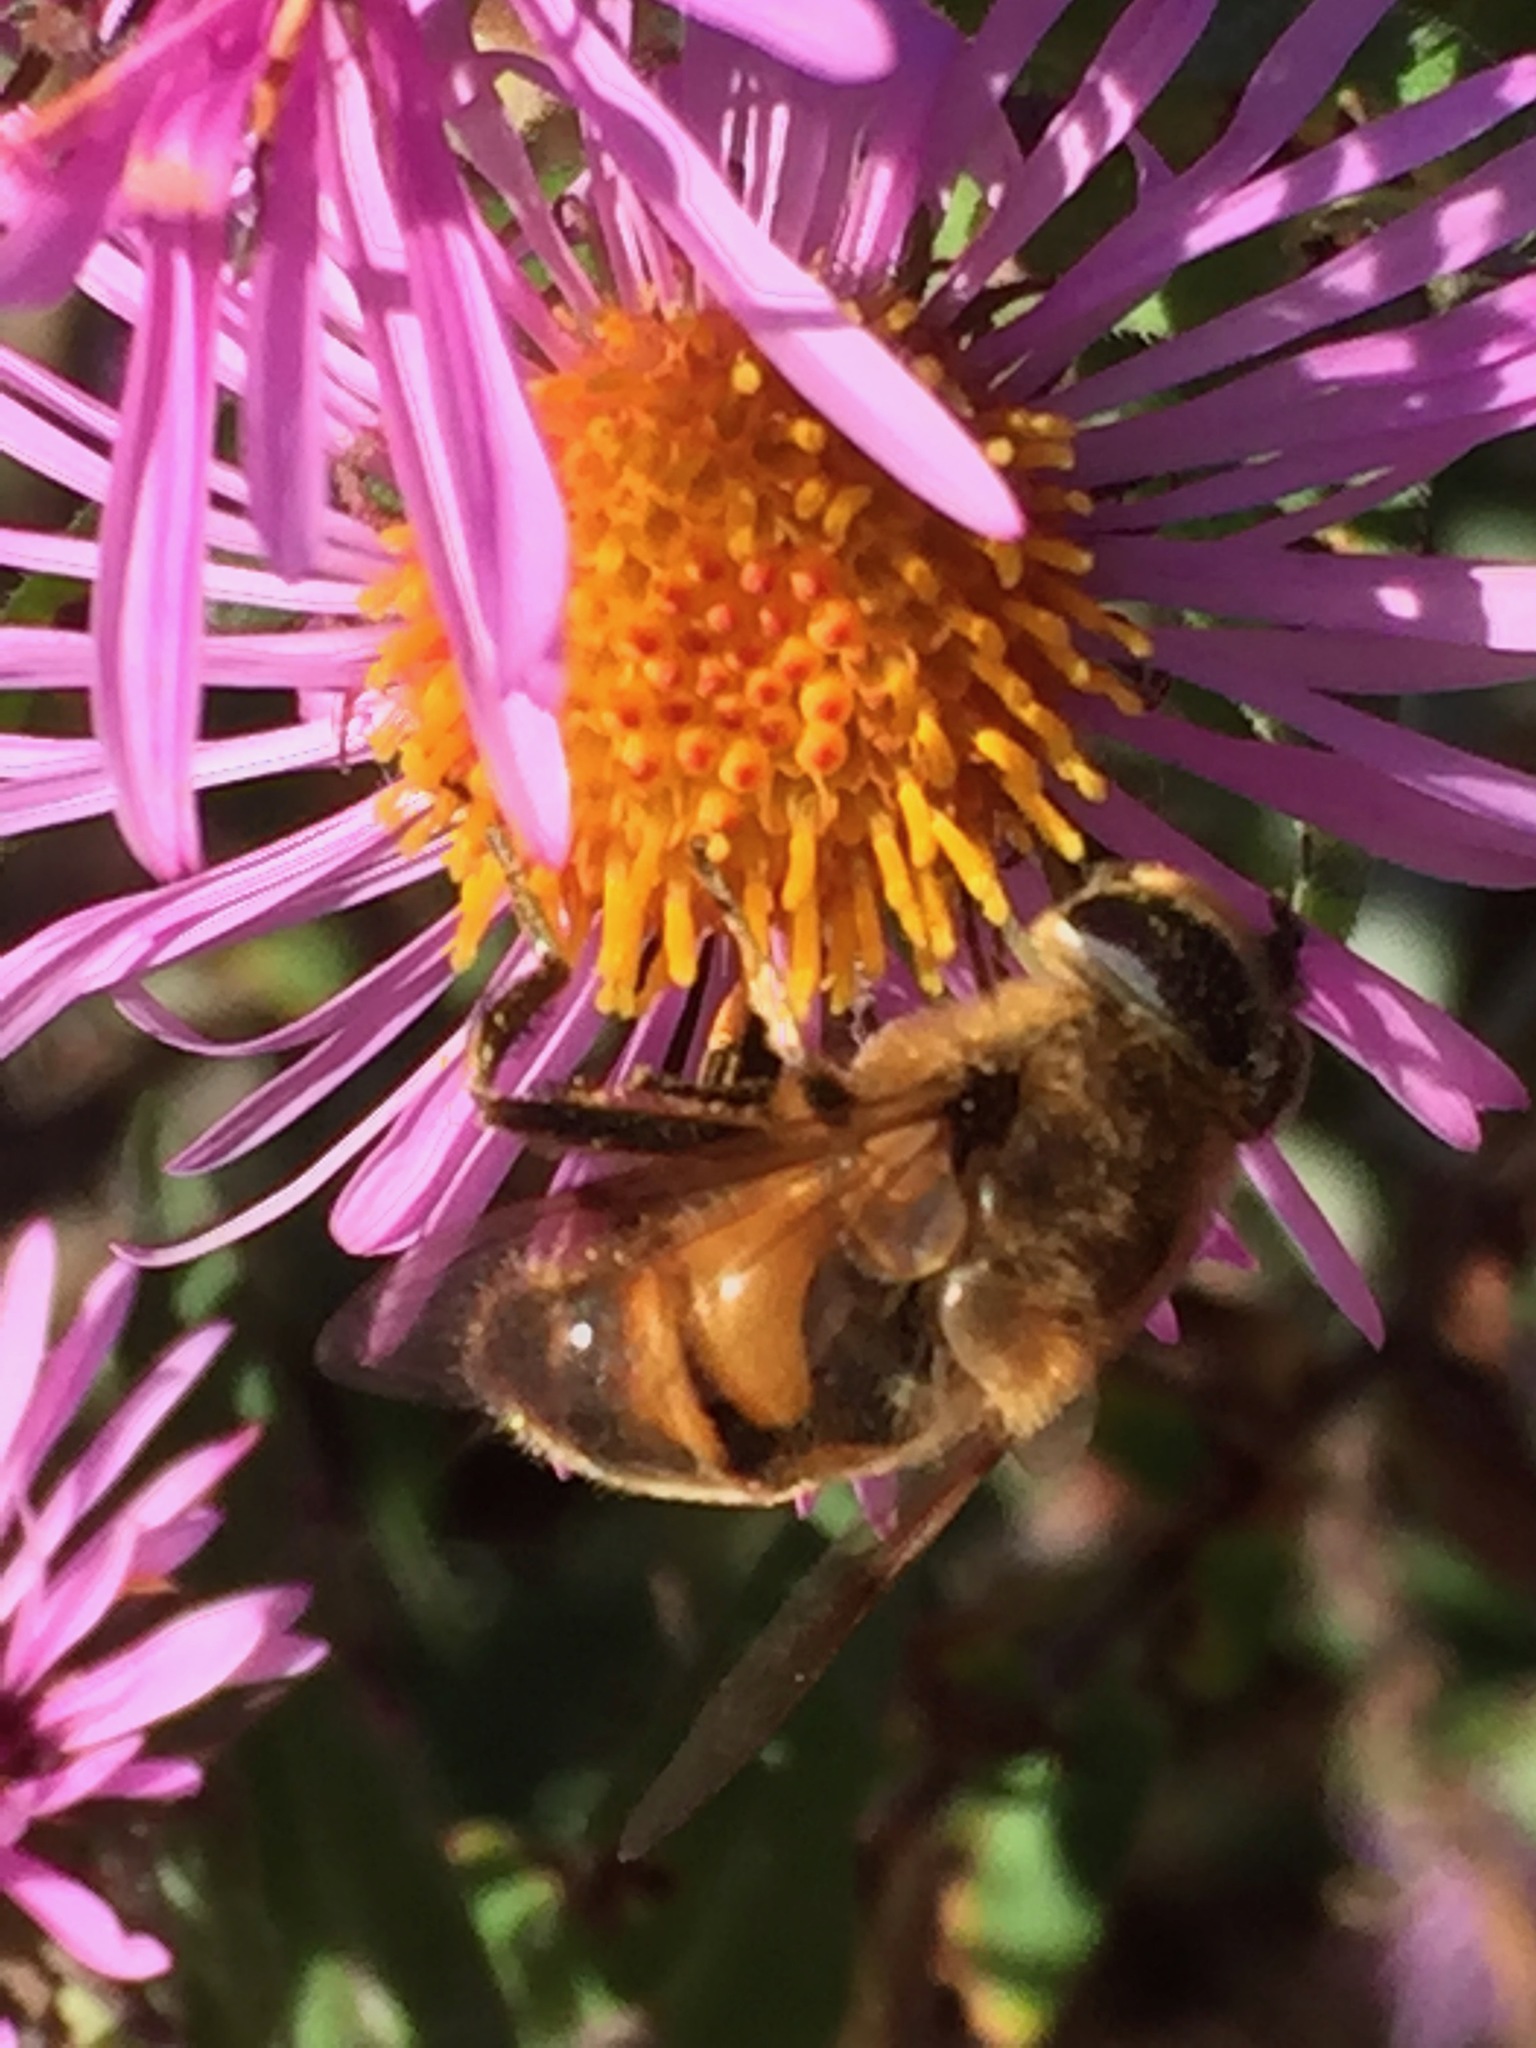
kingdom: Animalia
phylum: Arthropoda
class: Insecta
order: Diptera
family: Syrphidae
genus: Eristalis
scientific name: Eristalis tenax
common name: Drone fly
